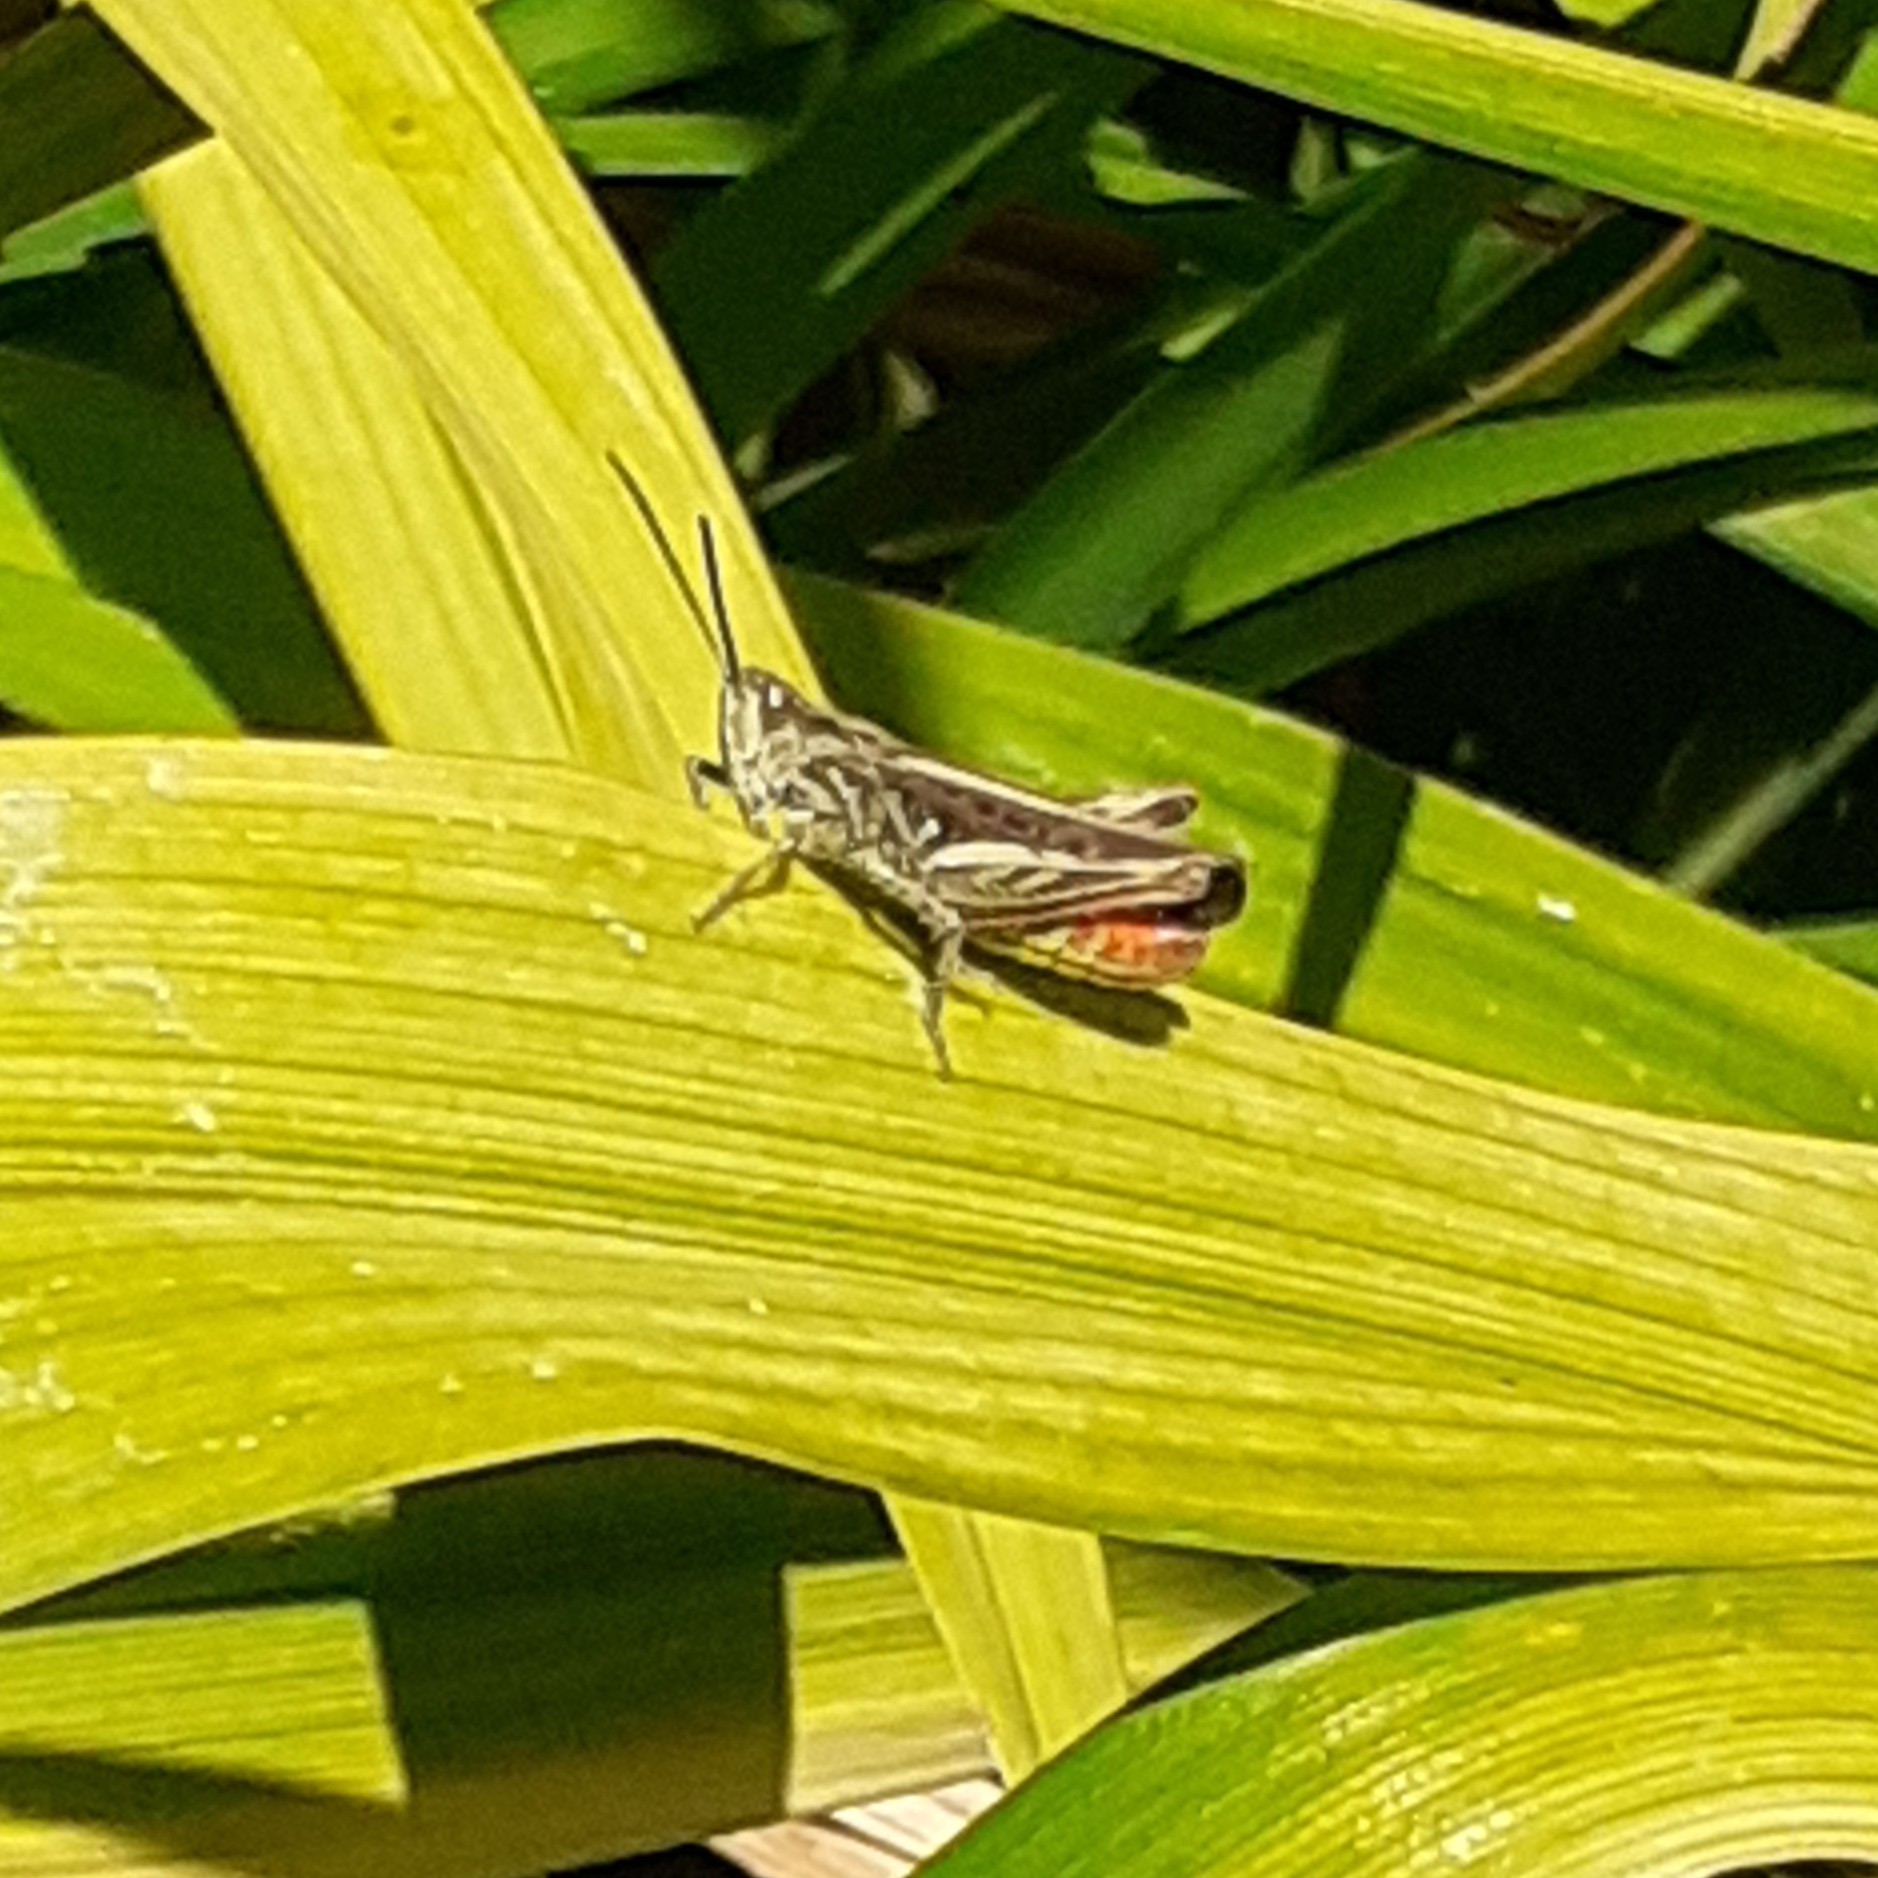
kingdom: Animalia
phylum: Arthropoda
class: Insecta
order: Orthoptera
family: Acrididae
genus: Chorthippus
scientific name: Chorthippus brunneus
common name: Field grasshopper
